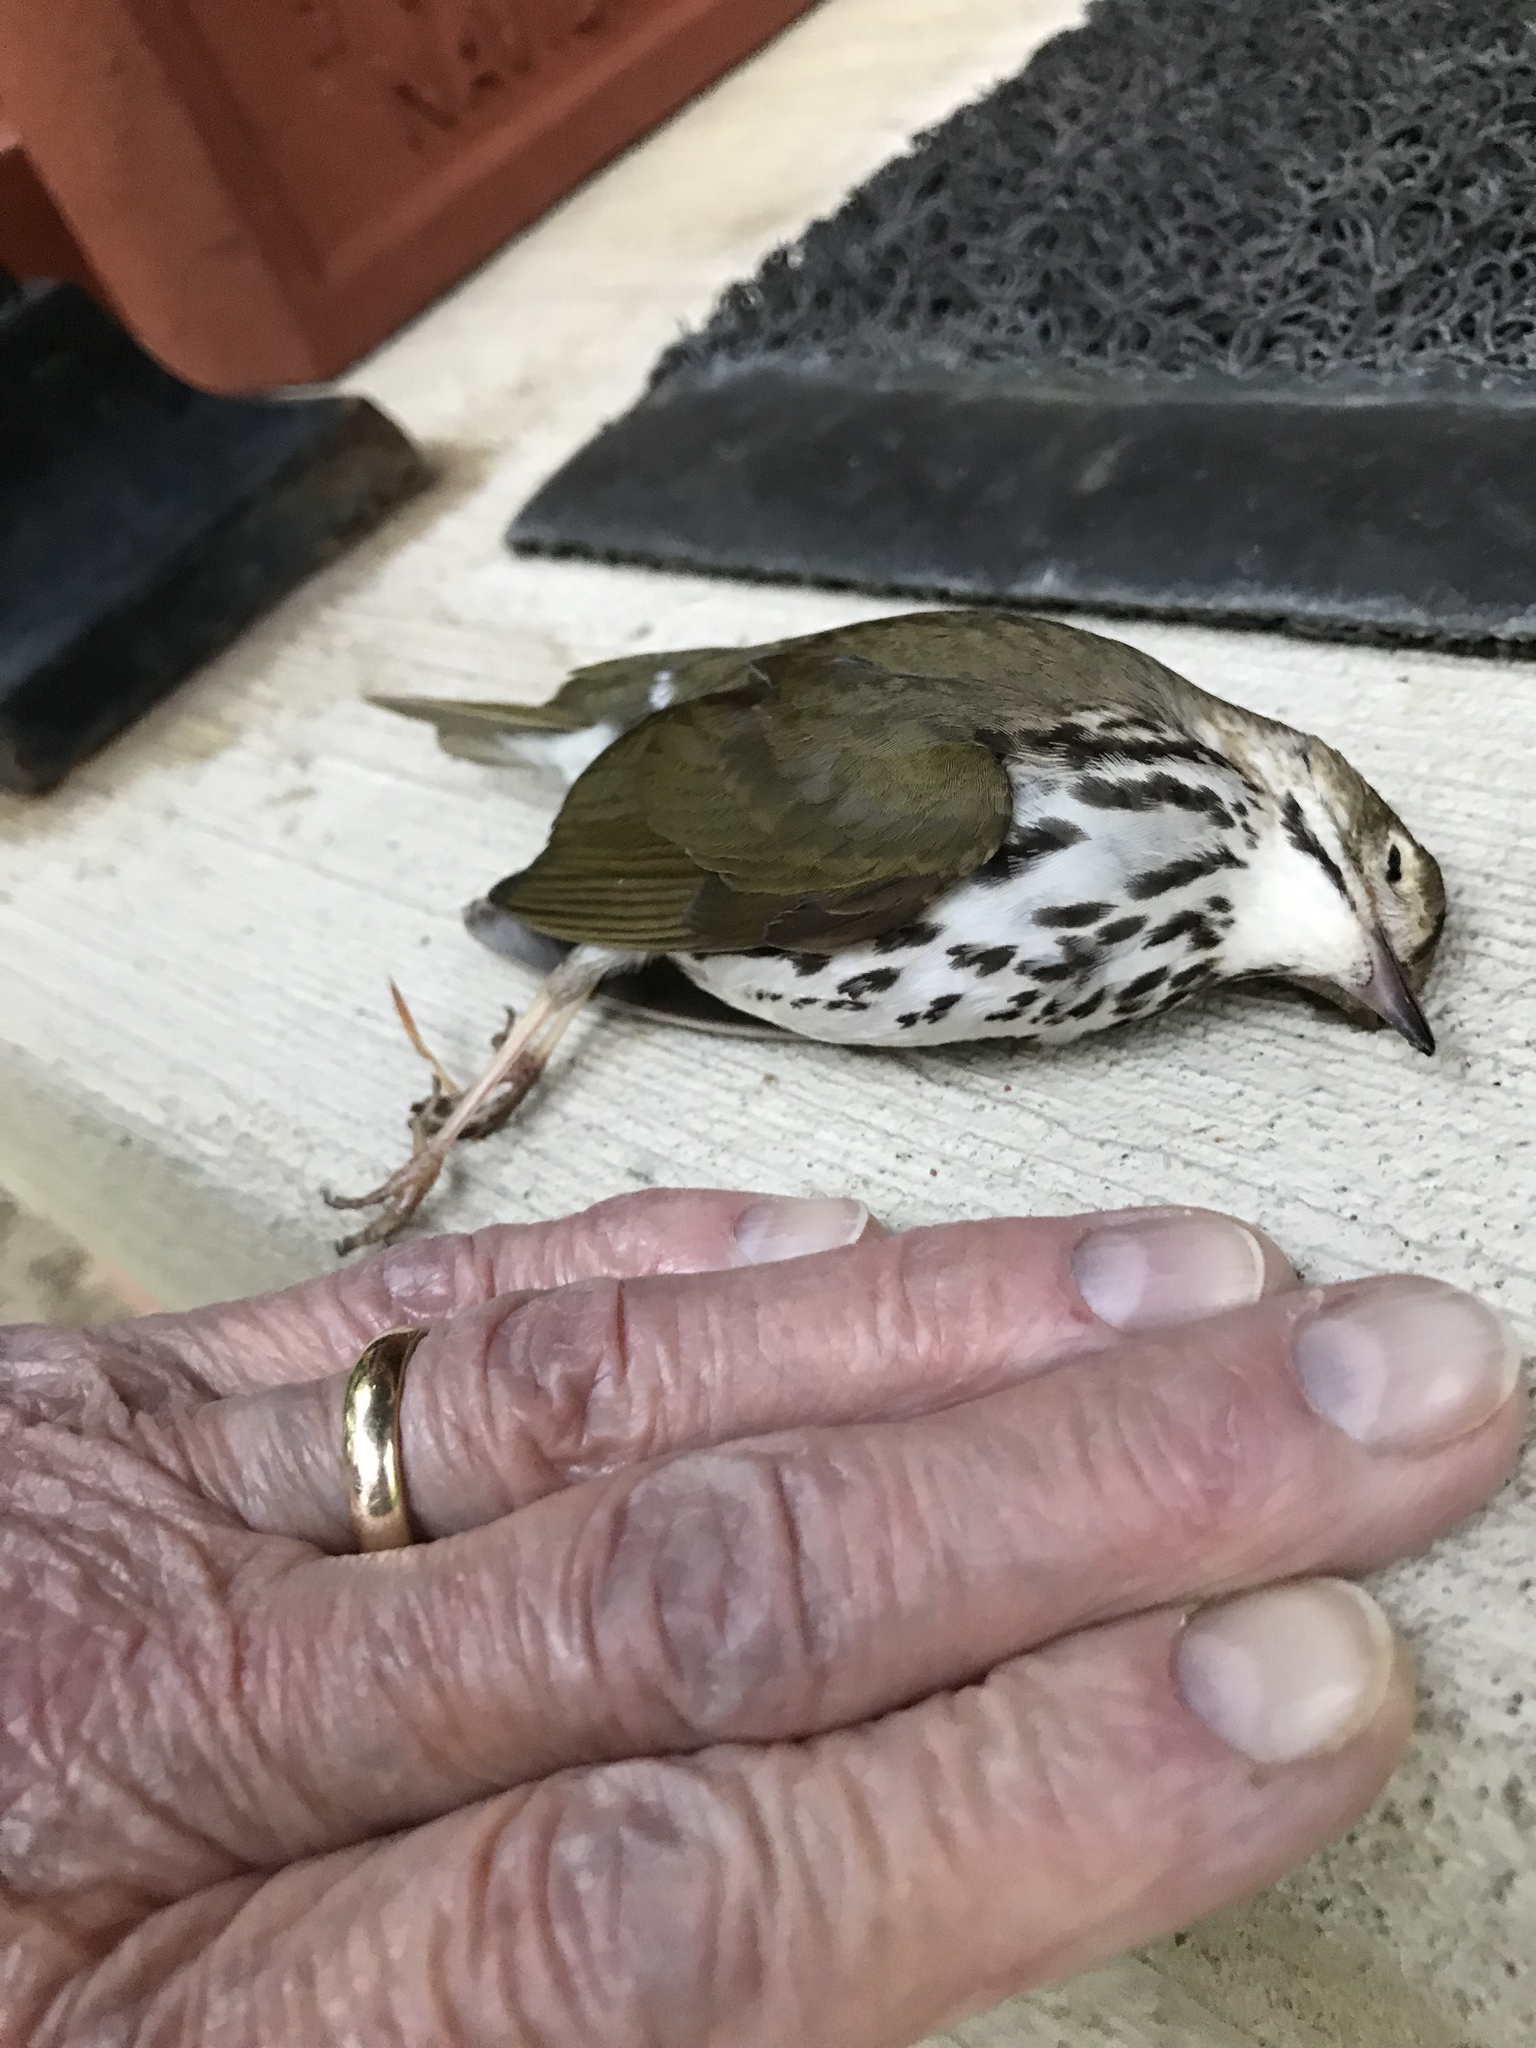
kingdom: Animalia
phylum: Chordata
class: Aves
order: Passeriformes
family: Parulidae
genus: Seiurus
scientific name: Seiurus aurocapilla
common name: Ovenbird
